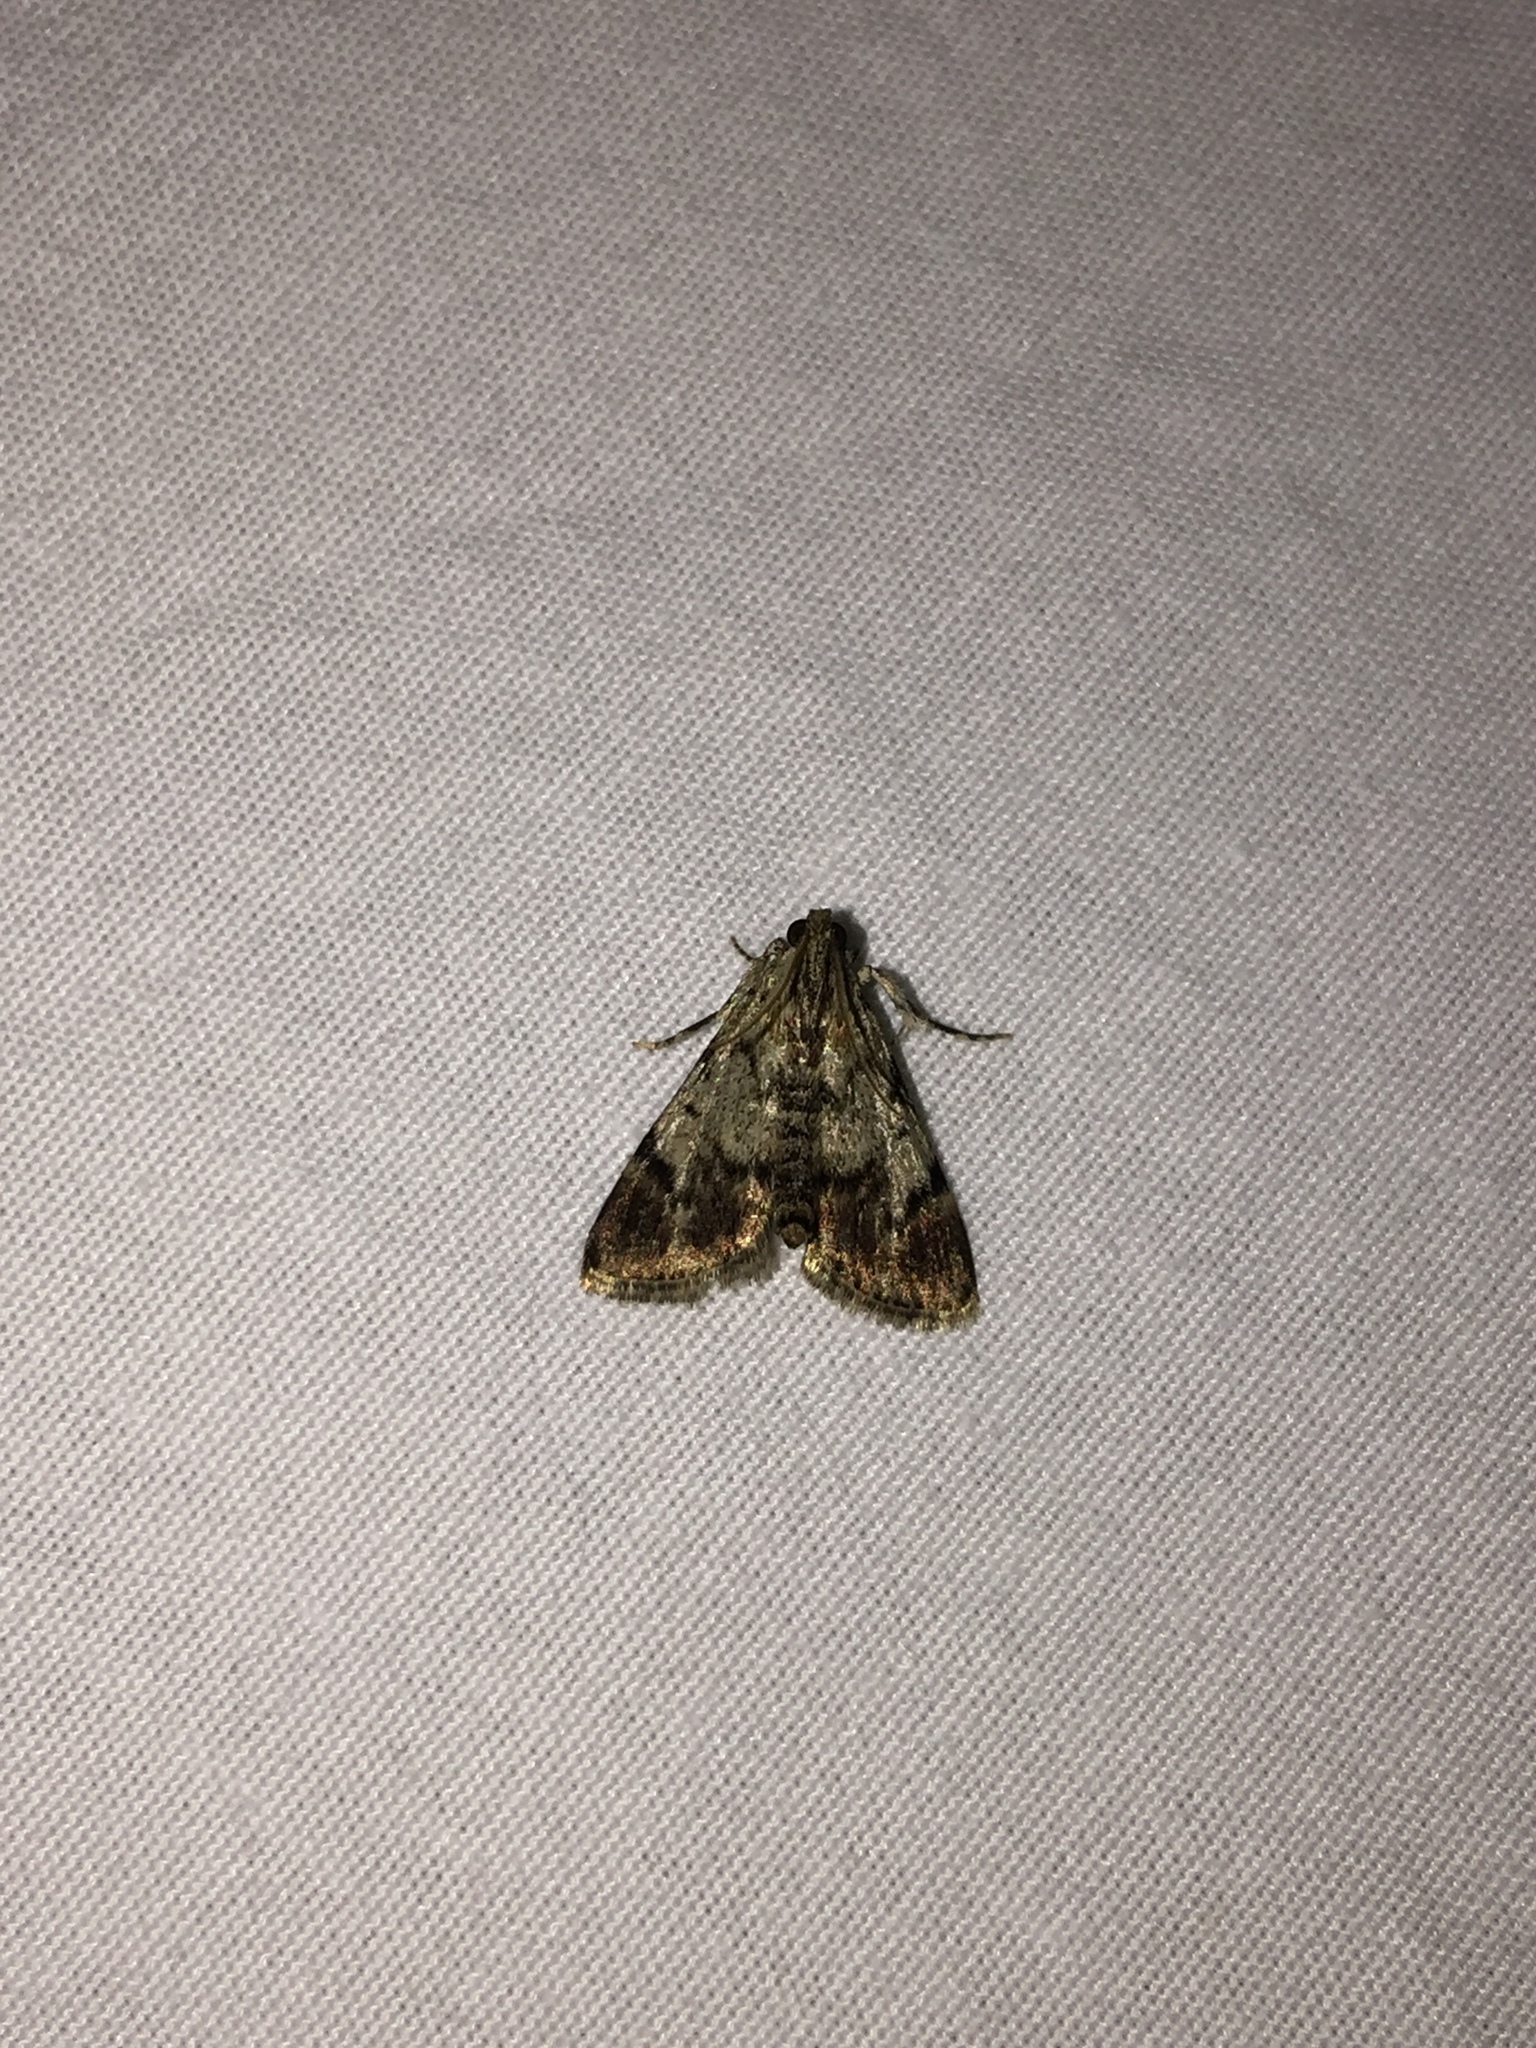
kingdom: Animalia
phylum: Arthropoda
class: Insecta
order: Lepidoptera
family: Pyralidae
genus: Epipaschia
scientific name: Epipaschia superatalis
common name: Dimorphic macalla moth
